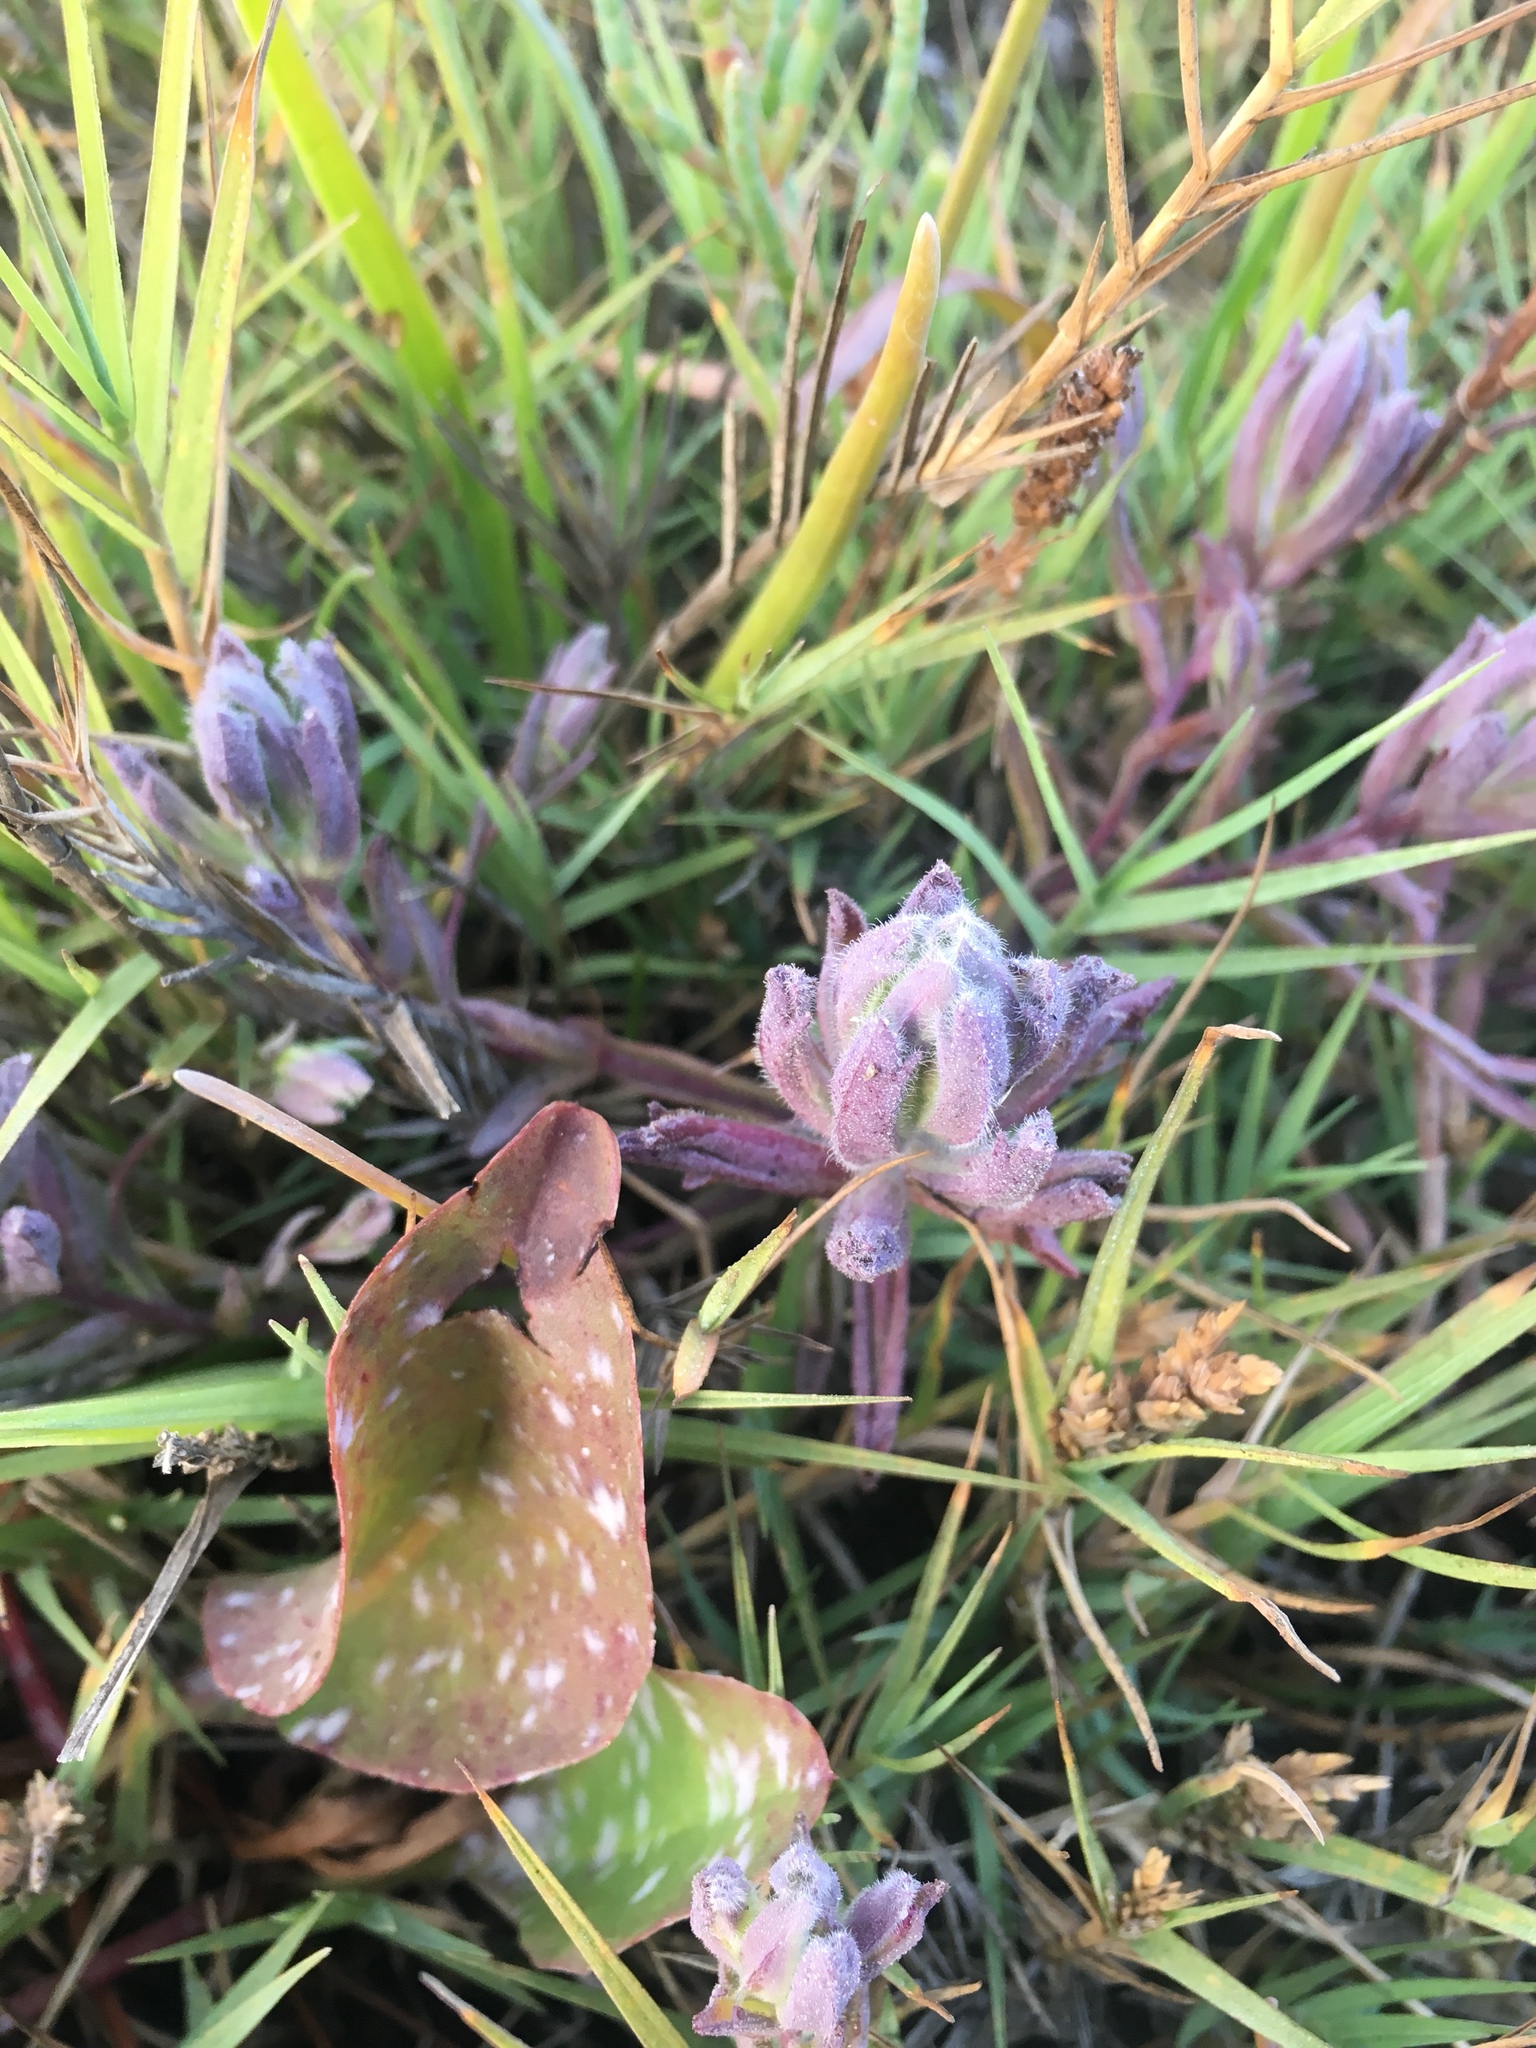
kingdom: Plantae
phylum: Tracheophyta
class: Magnoliopsida
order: Lamiales
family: Orobanchaceae
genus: Chloropyron
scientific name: Chloropyron maritimum
